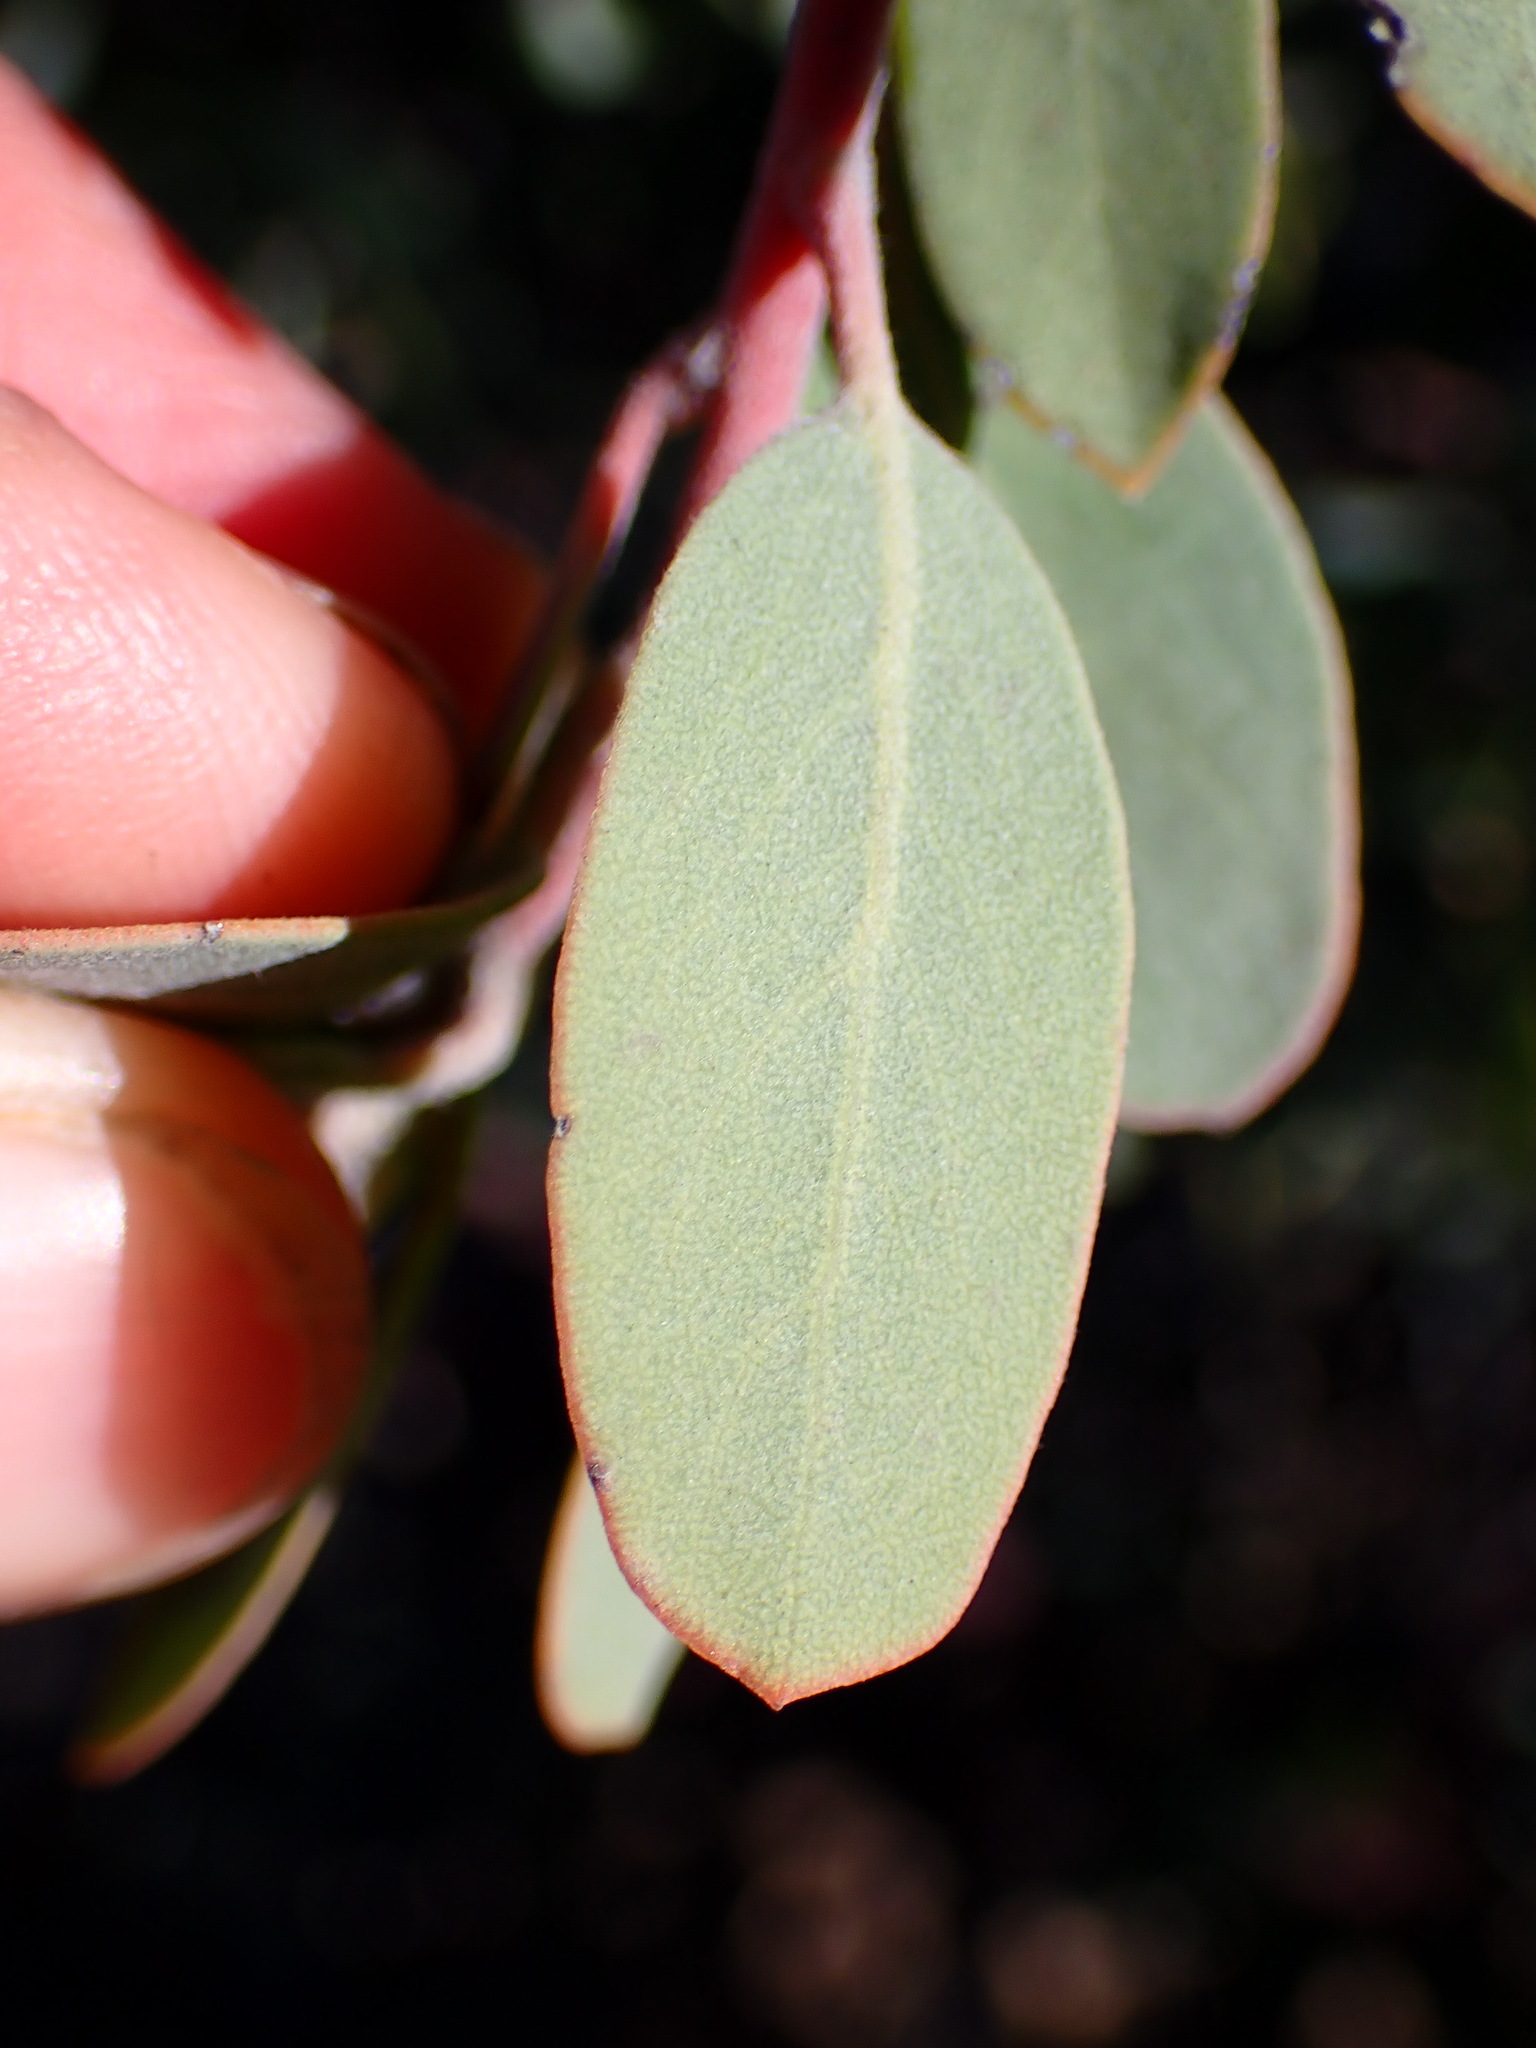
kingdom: Plantae
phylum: Tracheophyta
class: Magnoliopsida
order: Ericales
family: Ericaceae
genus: Arctostaphylos
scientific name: Arctostaphylos silvicola
